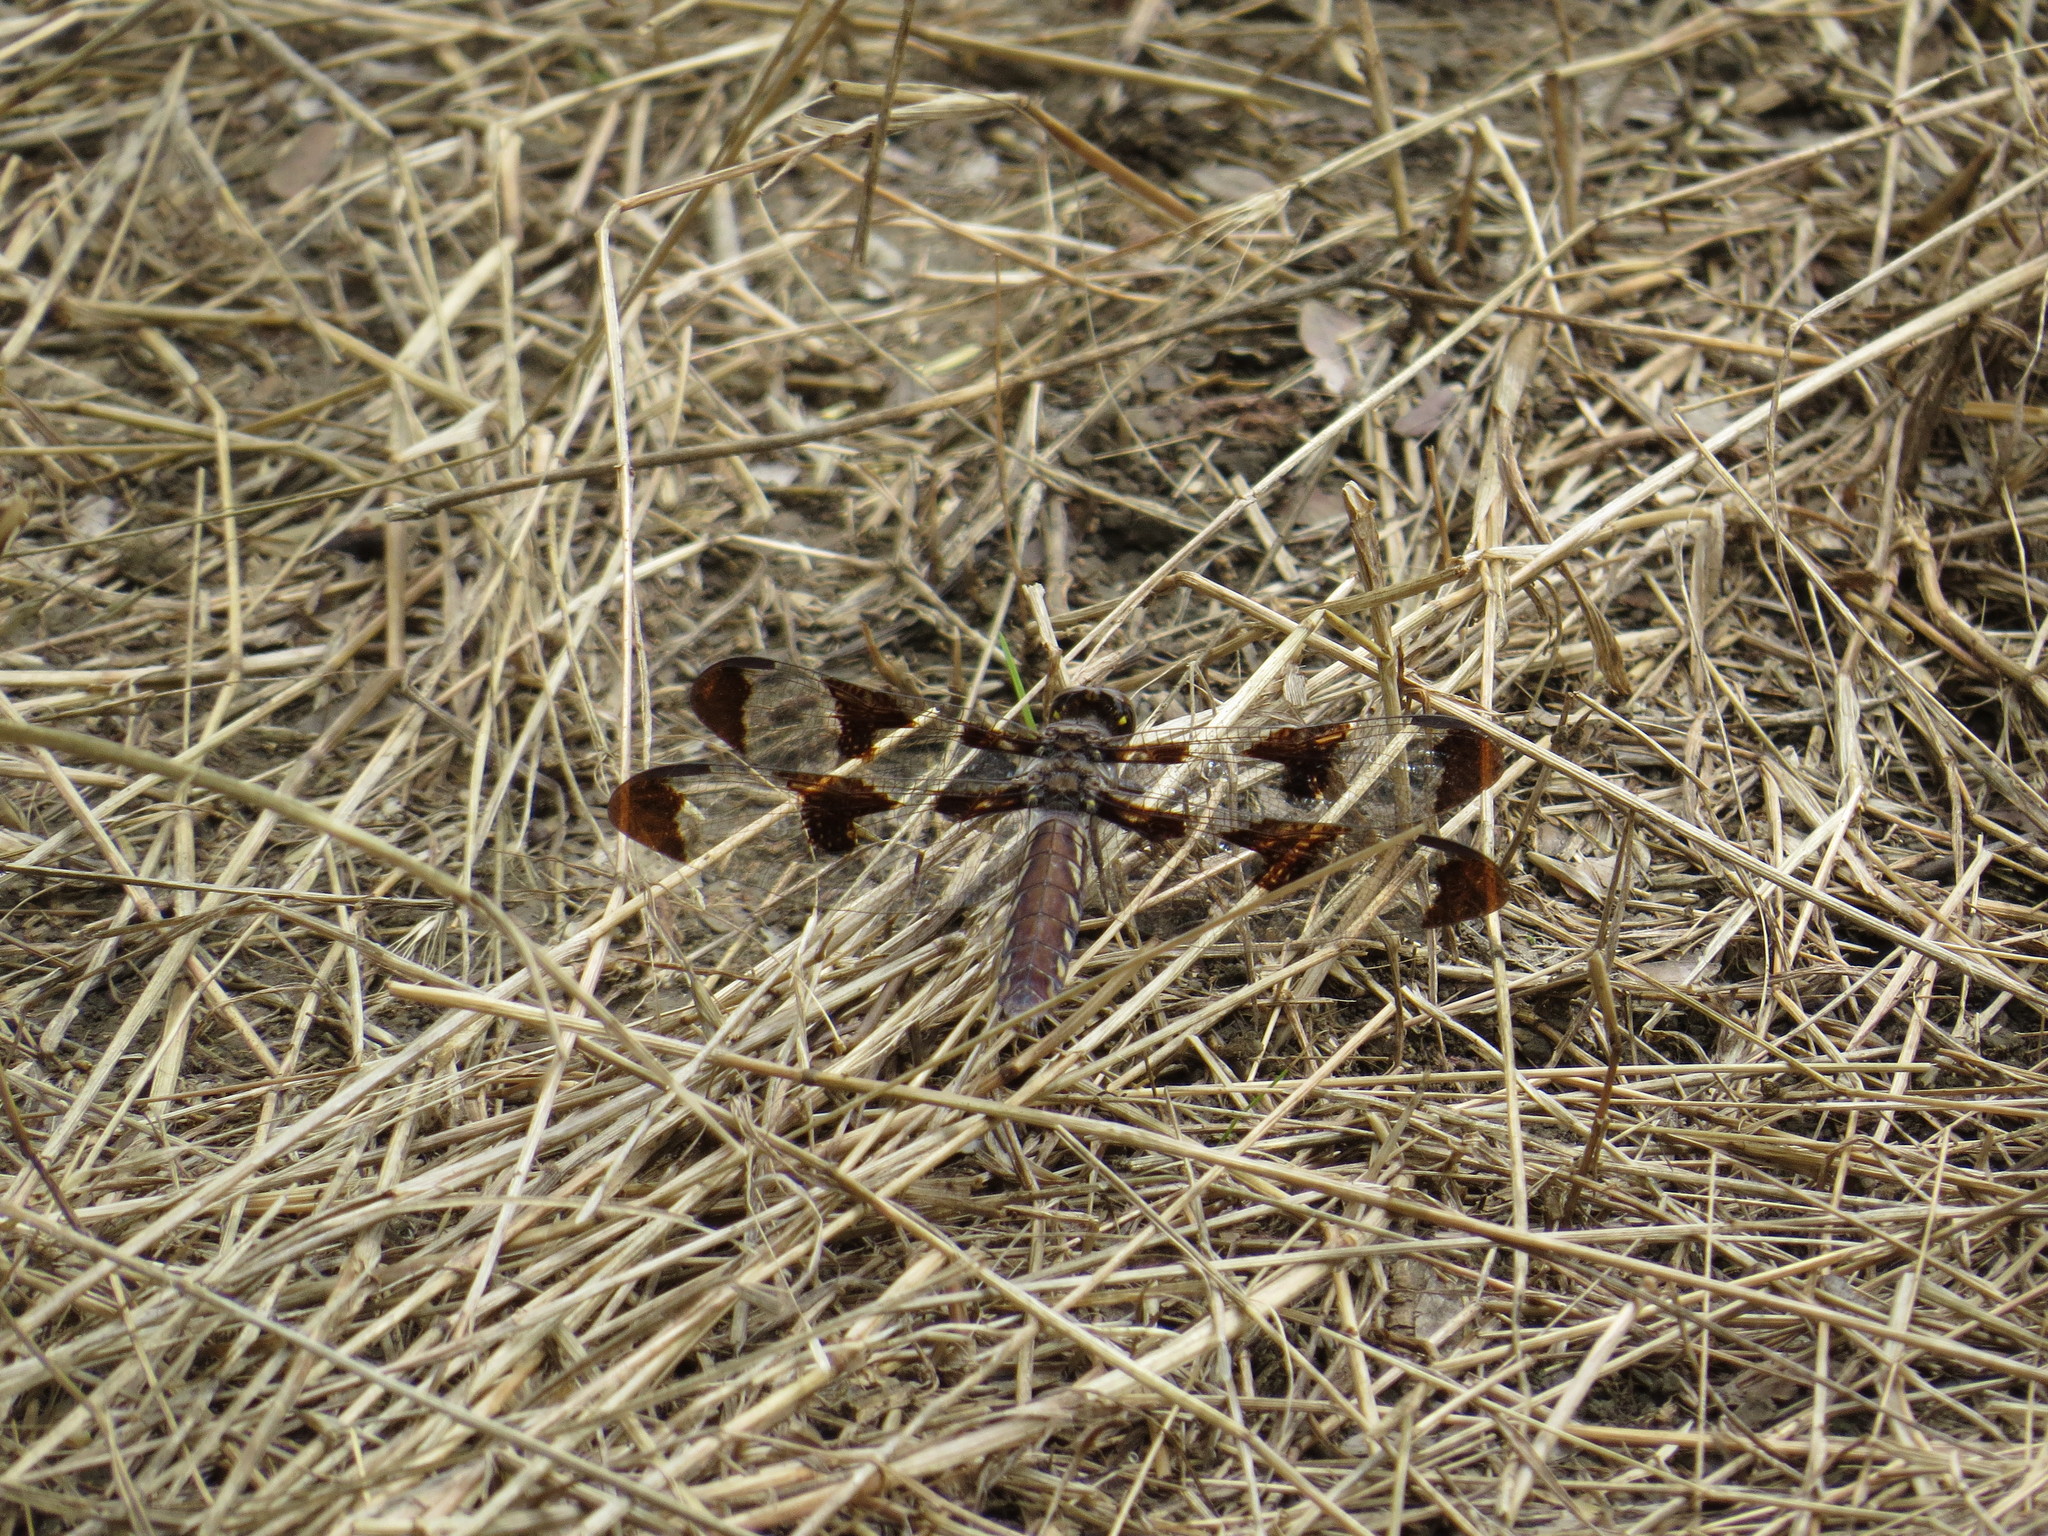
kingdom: Animalia
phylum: Arthropoda
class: Insecta
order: Odonata
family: Libellulidae
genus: Plathemis
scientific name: Plathemis lydia
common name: Common whitetail
